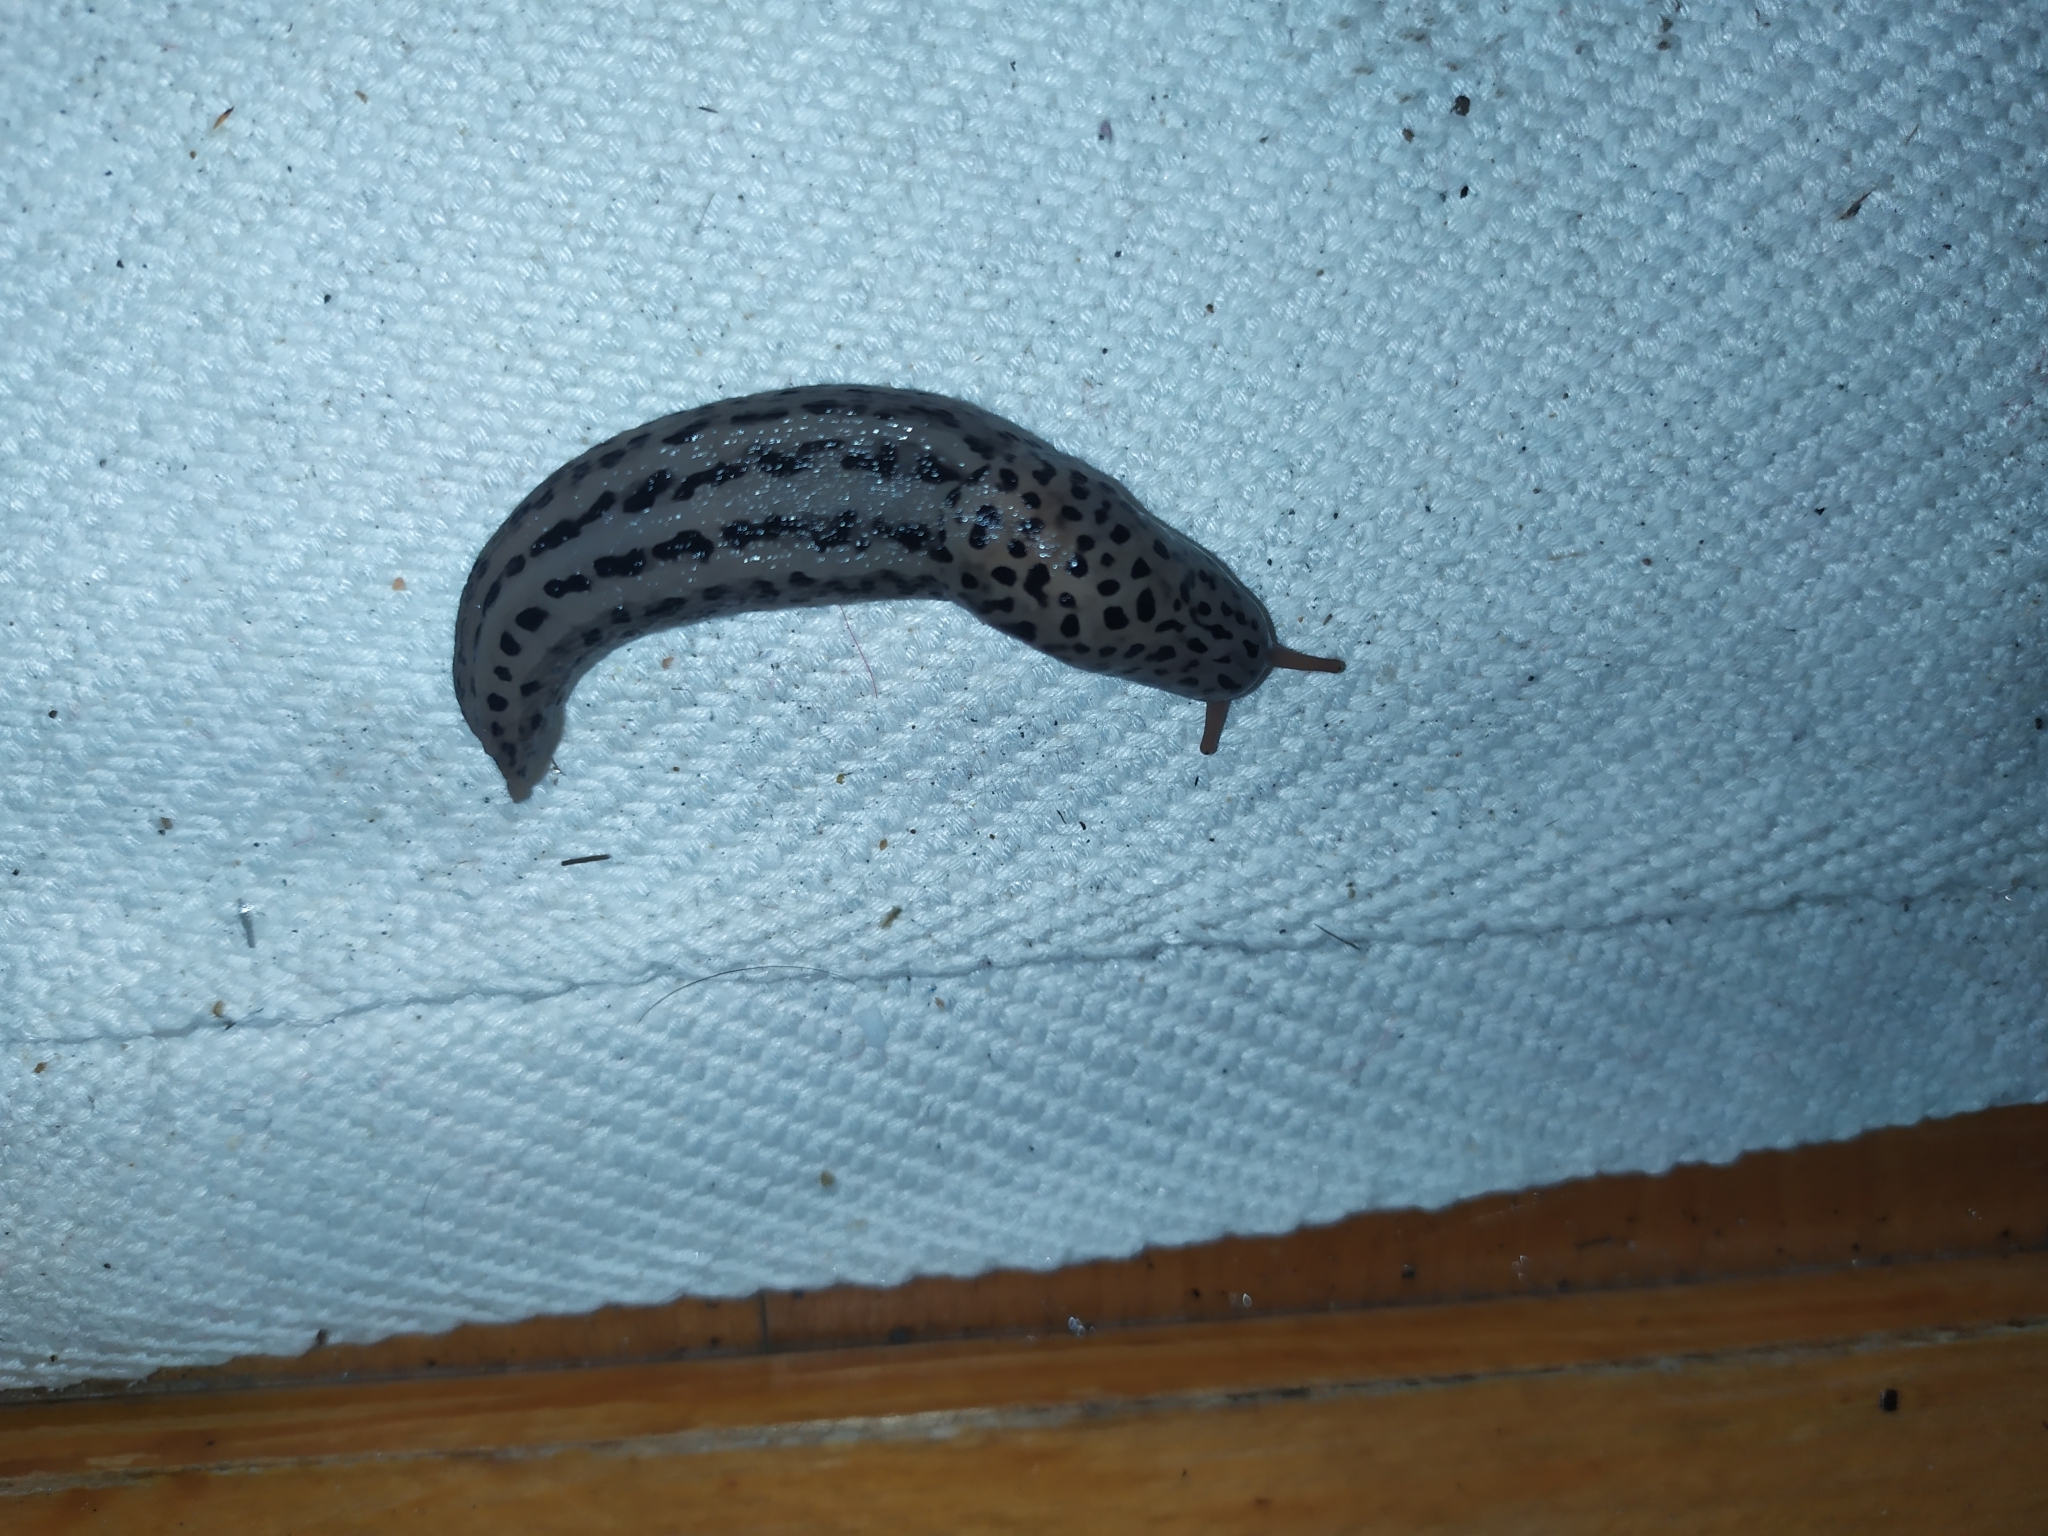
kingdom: Animalia
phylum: Mollusca
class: Gastropoda
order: Stylommatophora
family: Limacidae
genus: Limax
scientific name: Limax maximus
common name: Great grey slug
